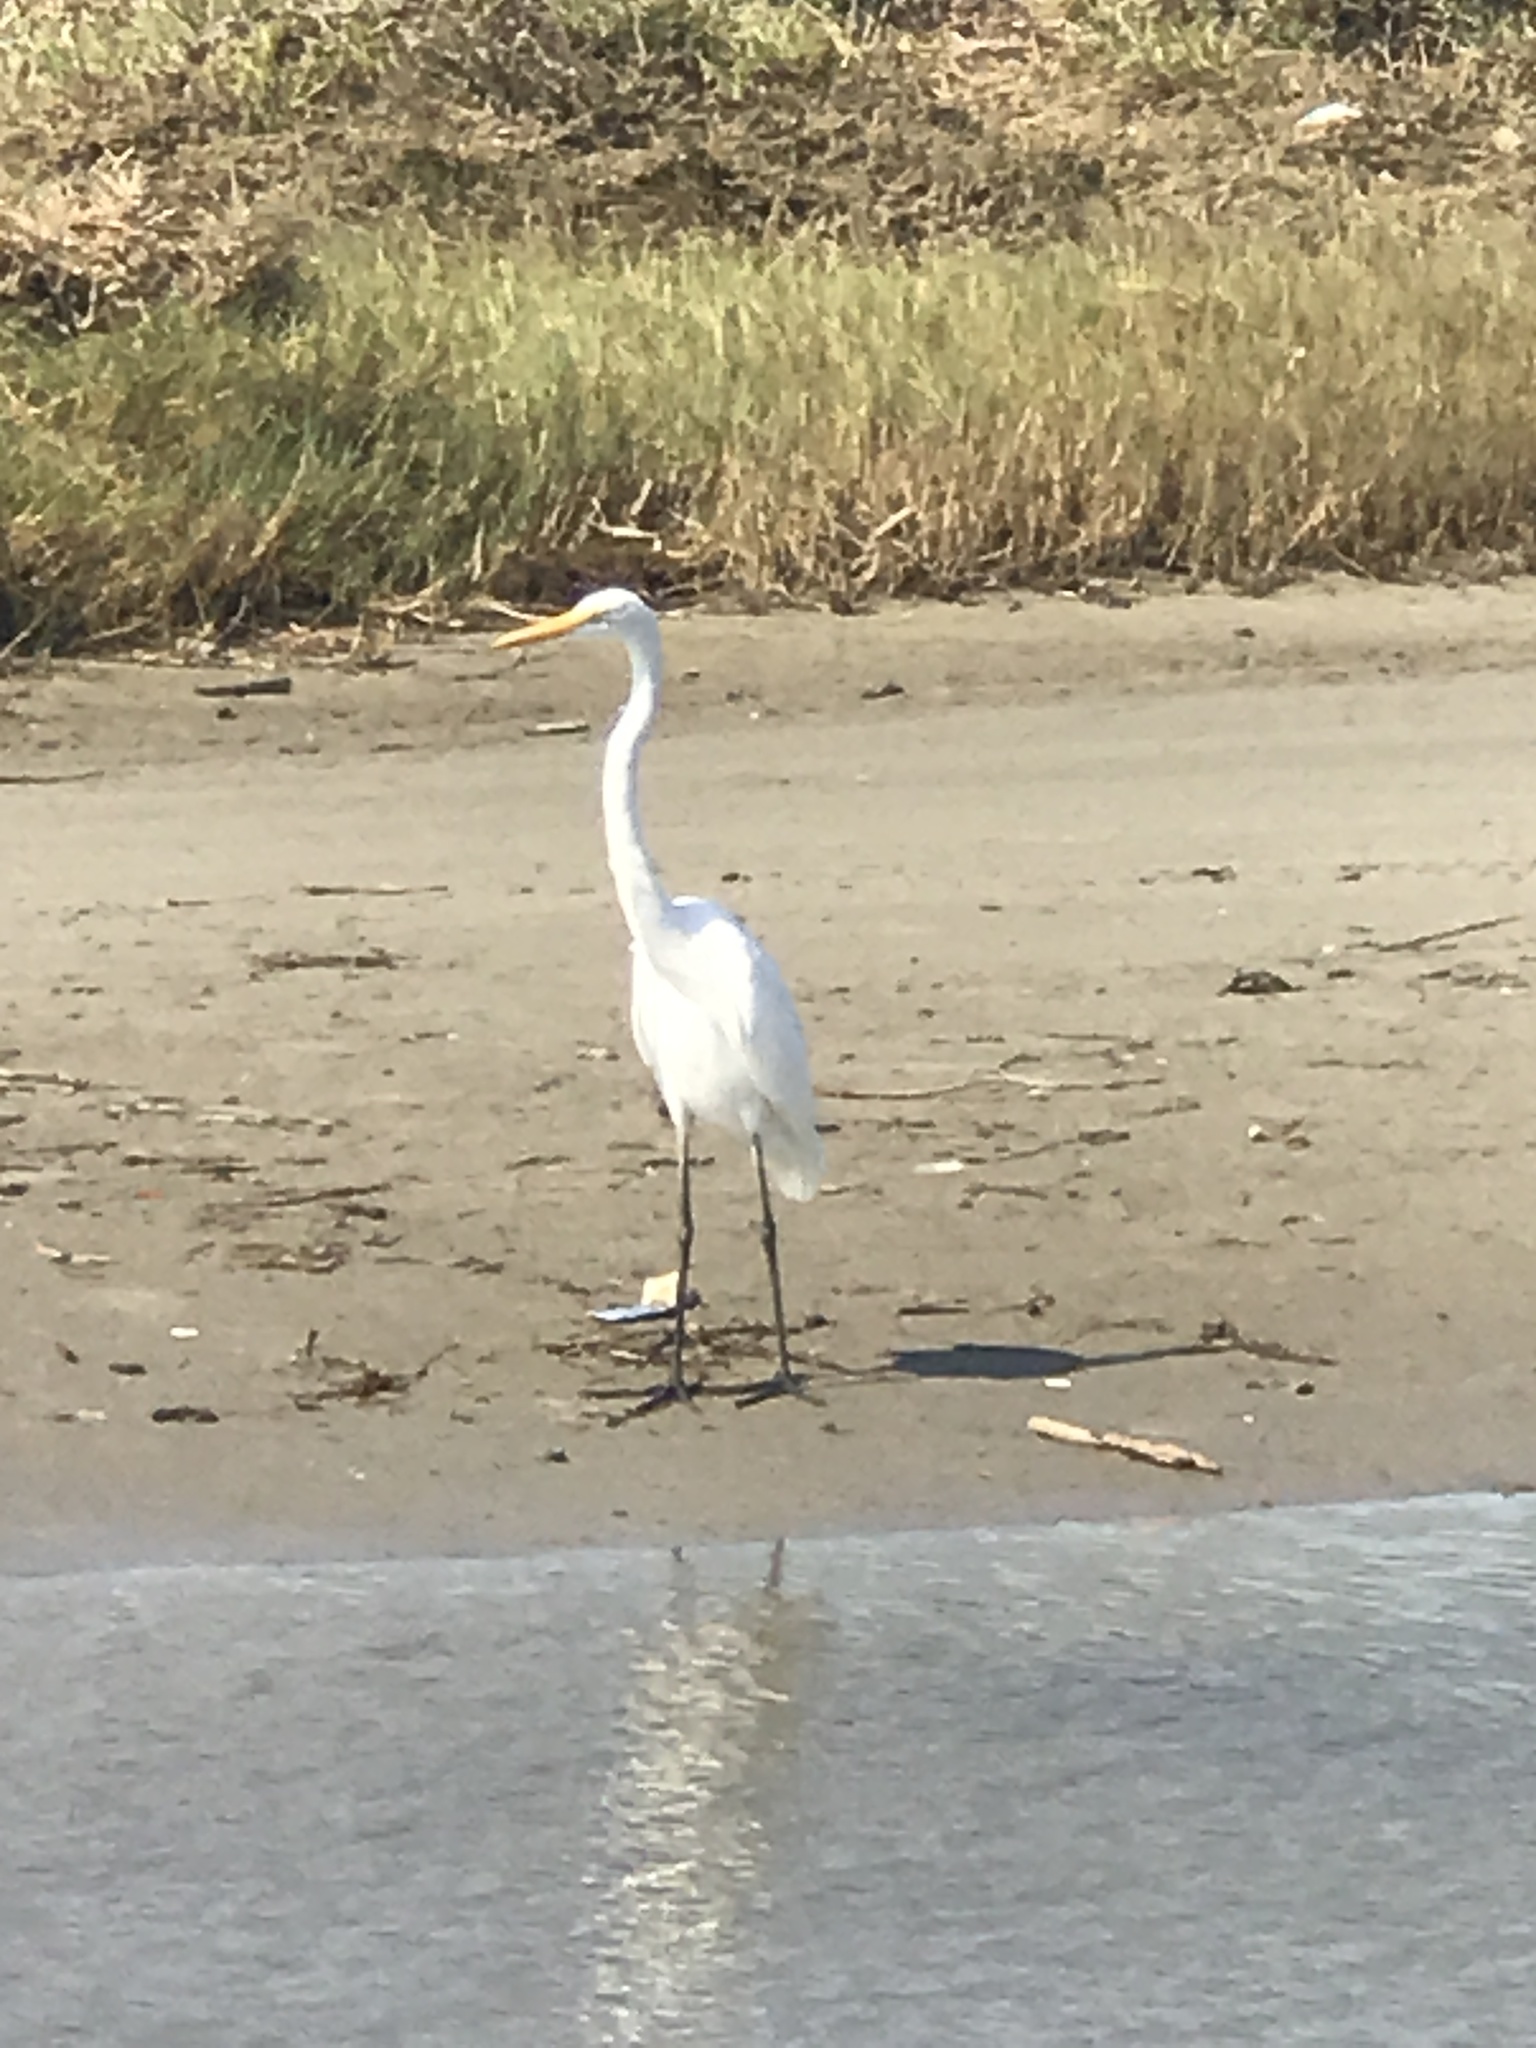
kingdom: Animalia
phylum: Chordata
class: Aves
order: Pelecaniformes
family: Ardeidae
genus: Ardea
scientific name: Ardea alba
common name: Great egret
